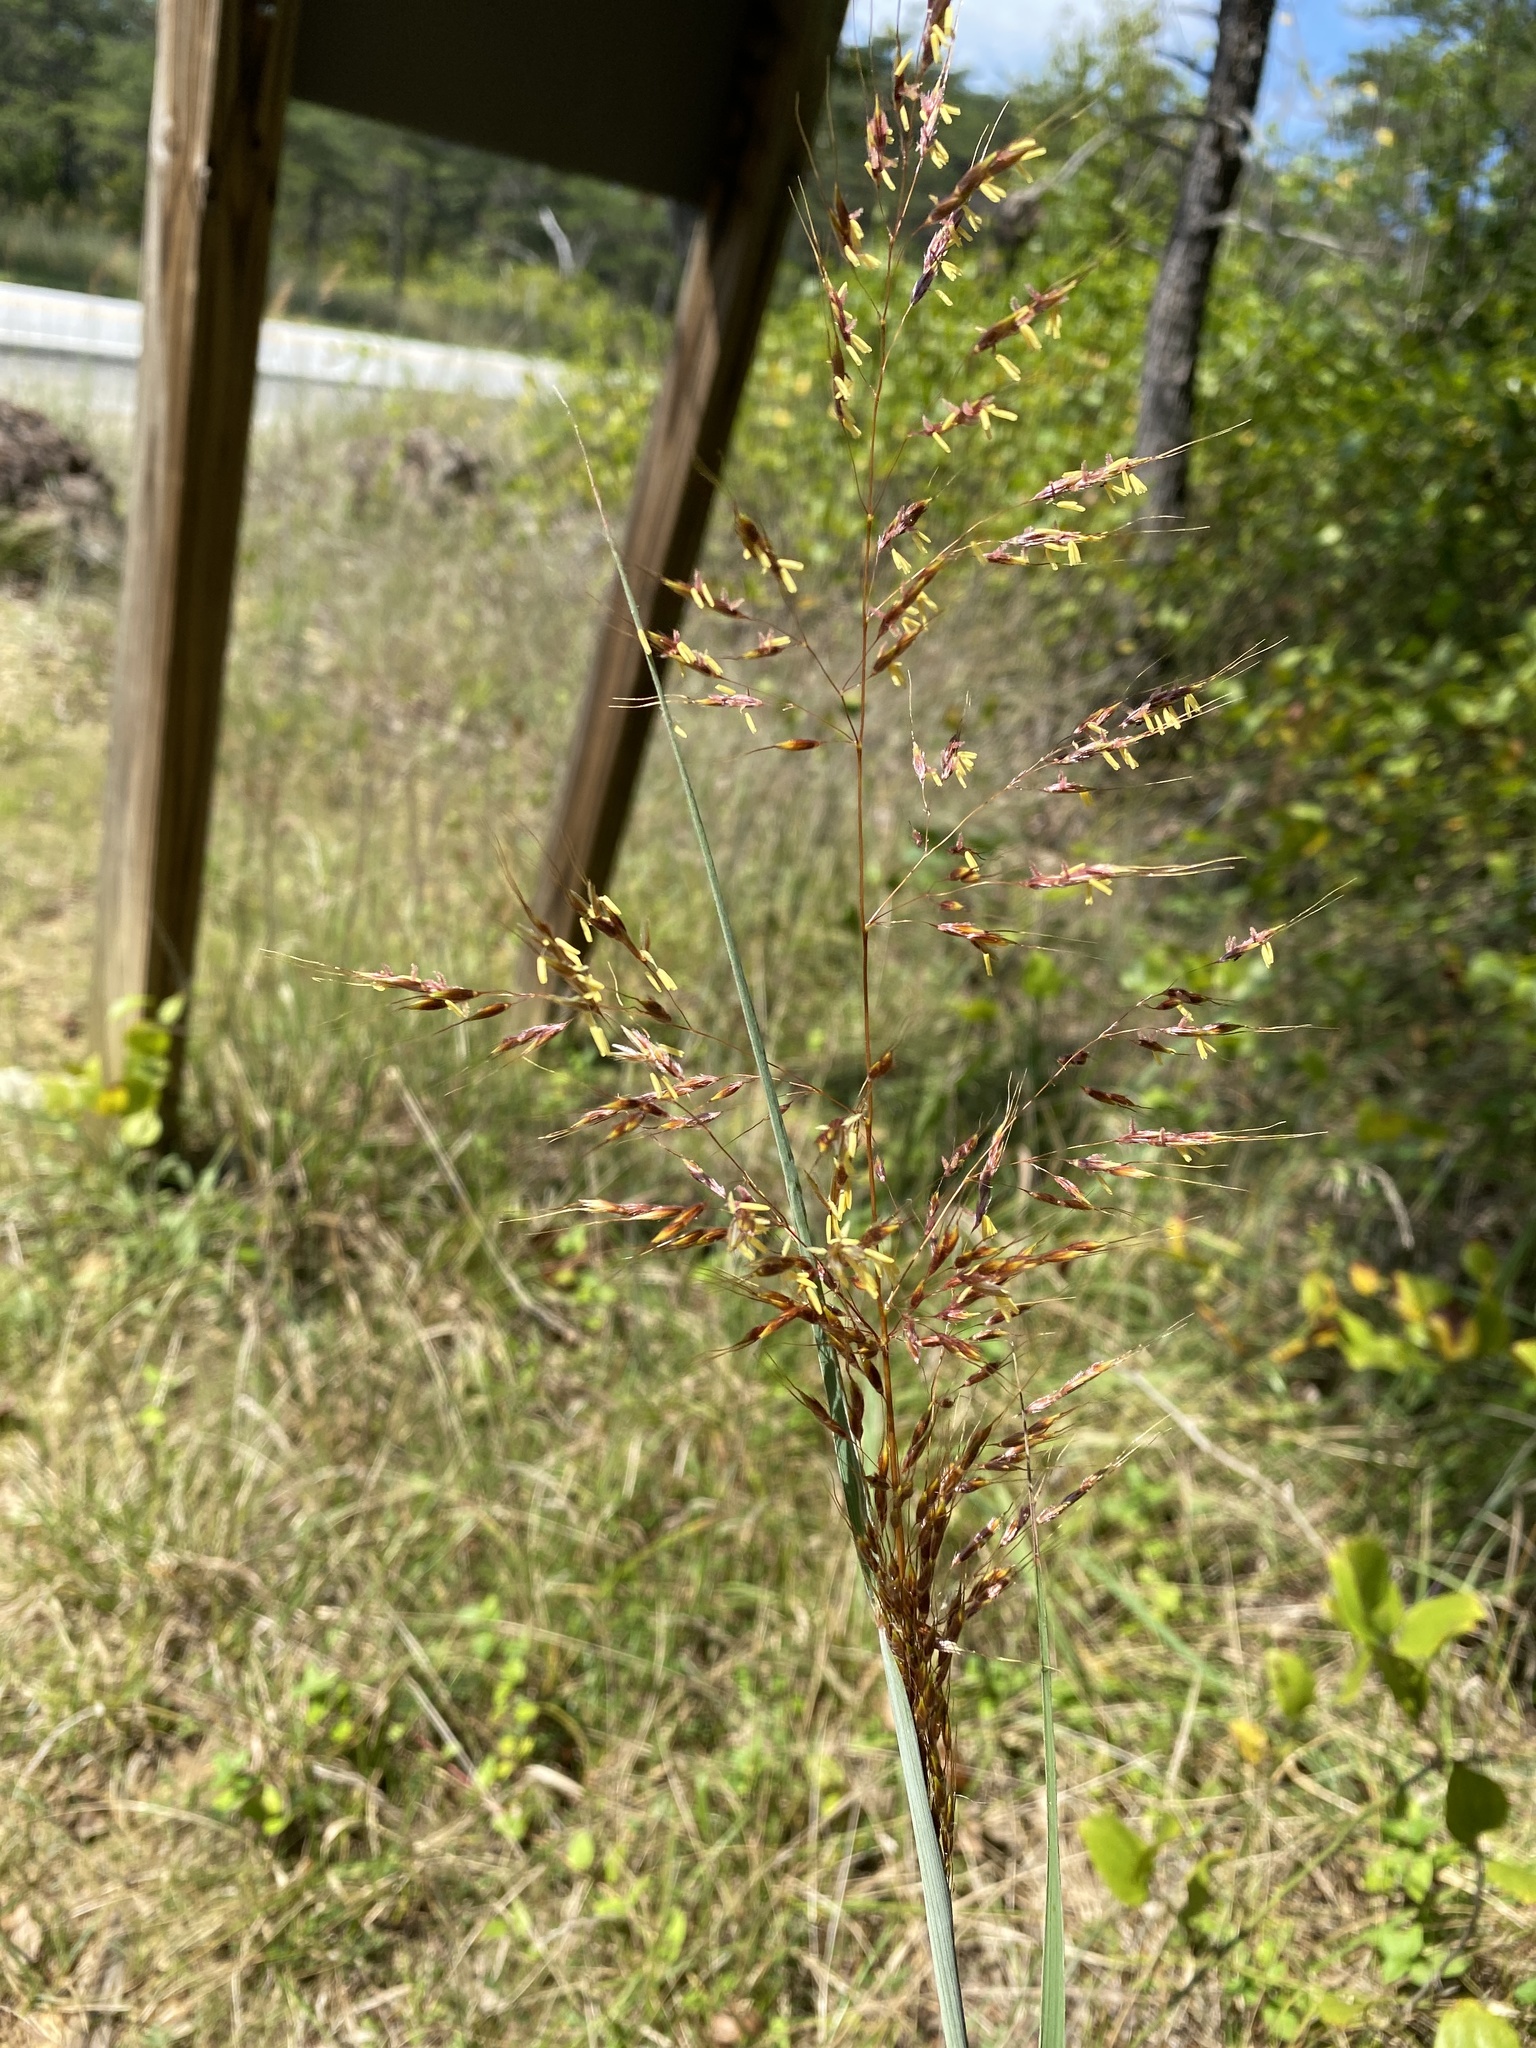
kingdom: Plantae
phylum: Tracheophyta
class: Liliopsida
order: Poales
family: Poaceae
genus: Sorghastrum
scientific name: Sorghastrum nutans
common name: Indian grass
